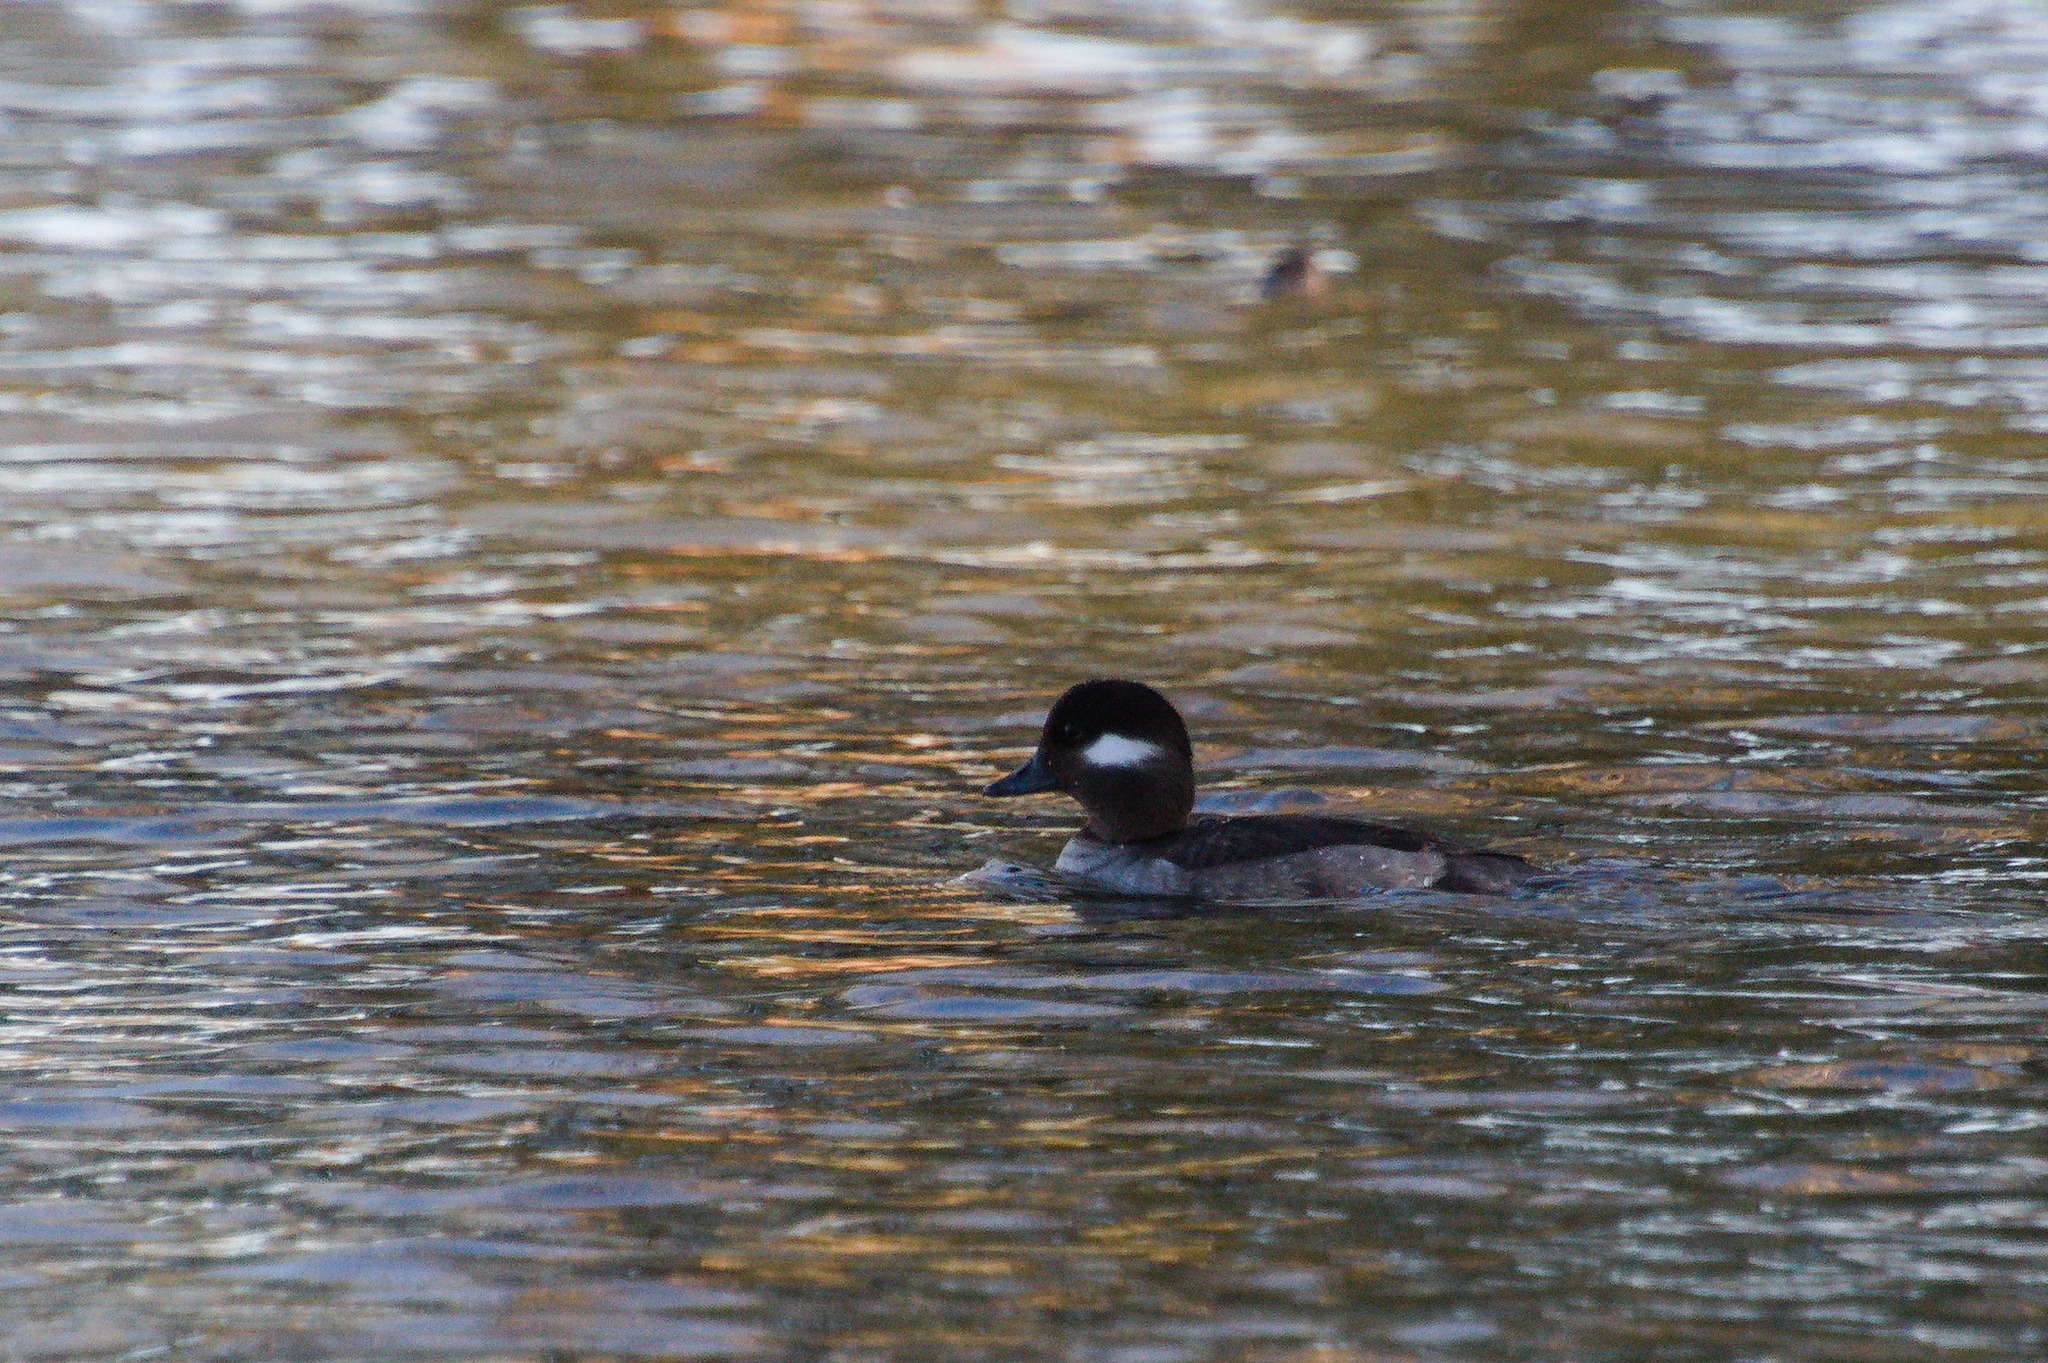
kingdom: Animalia
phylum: Chordata
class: Aves
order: Anseriformes
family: Anatidae
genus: Bucephala
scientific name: Bucephala albeola
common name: Bufflehead
